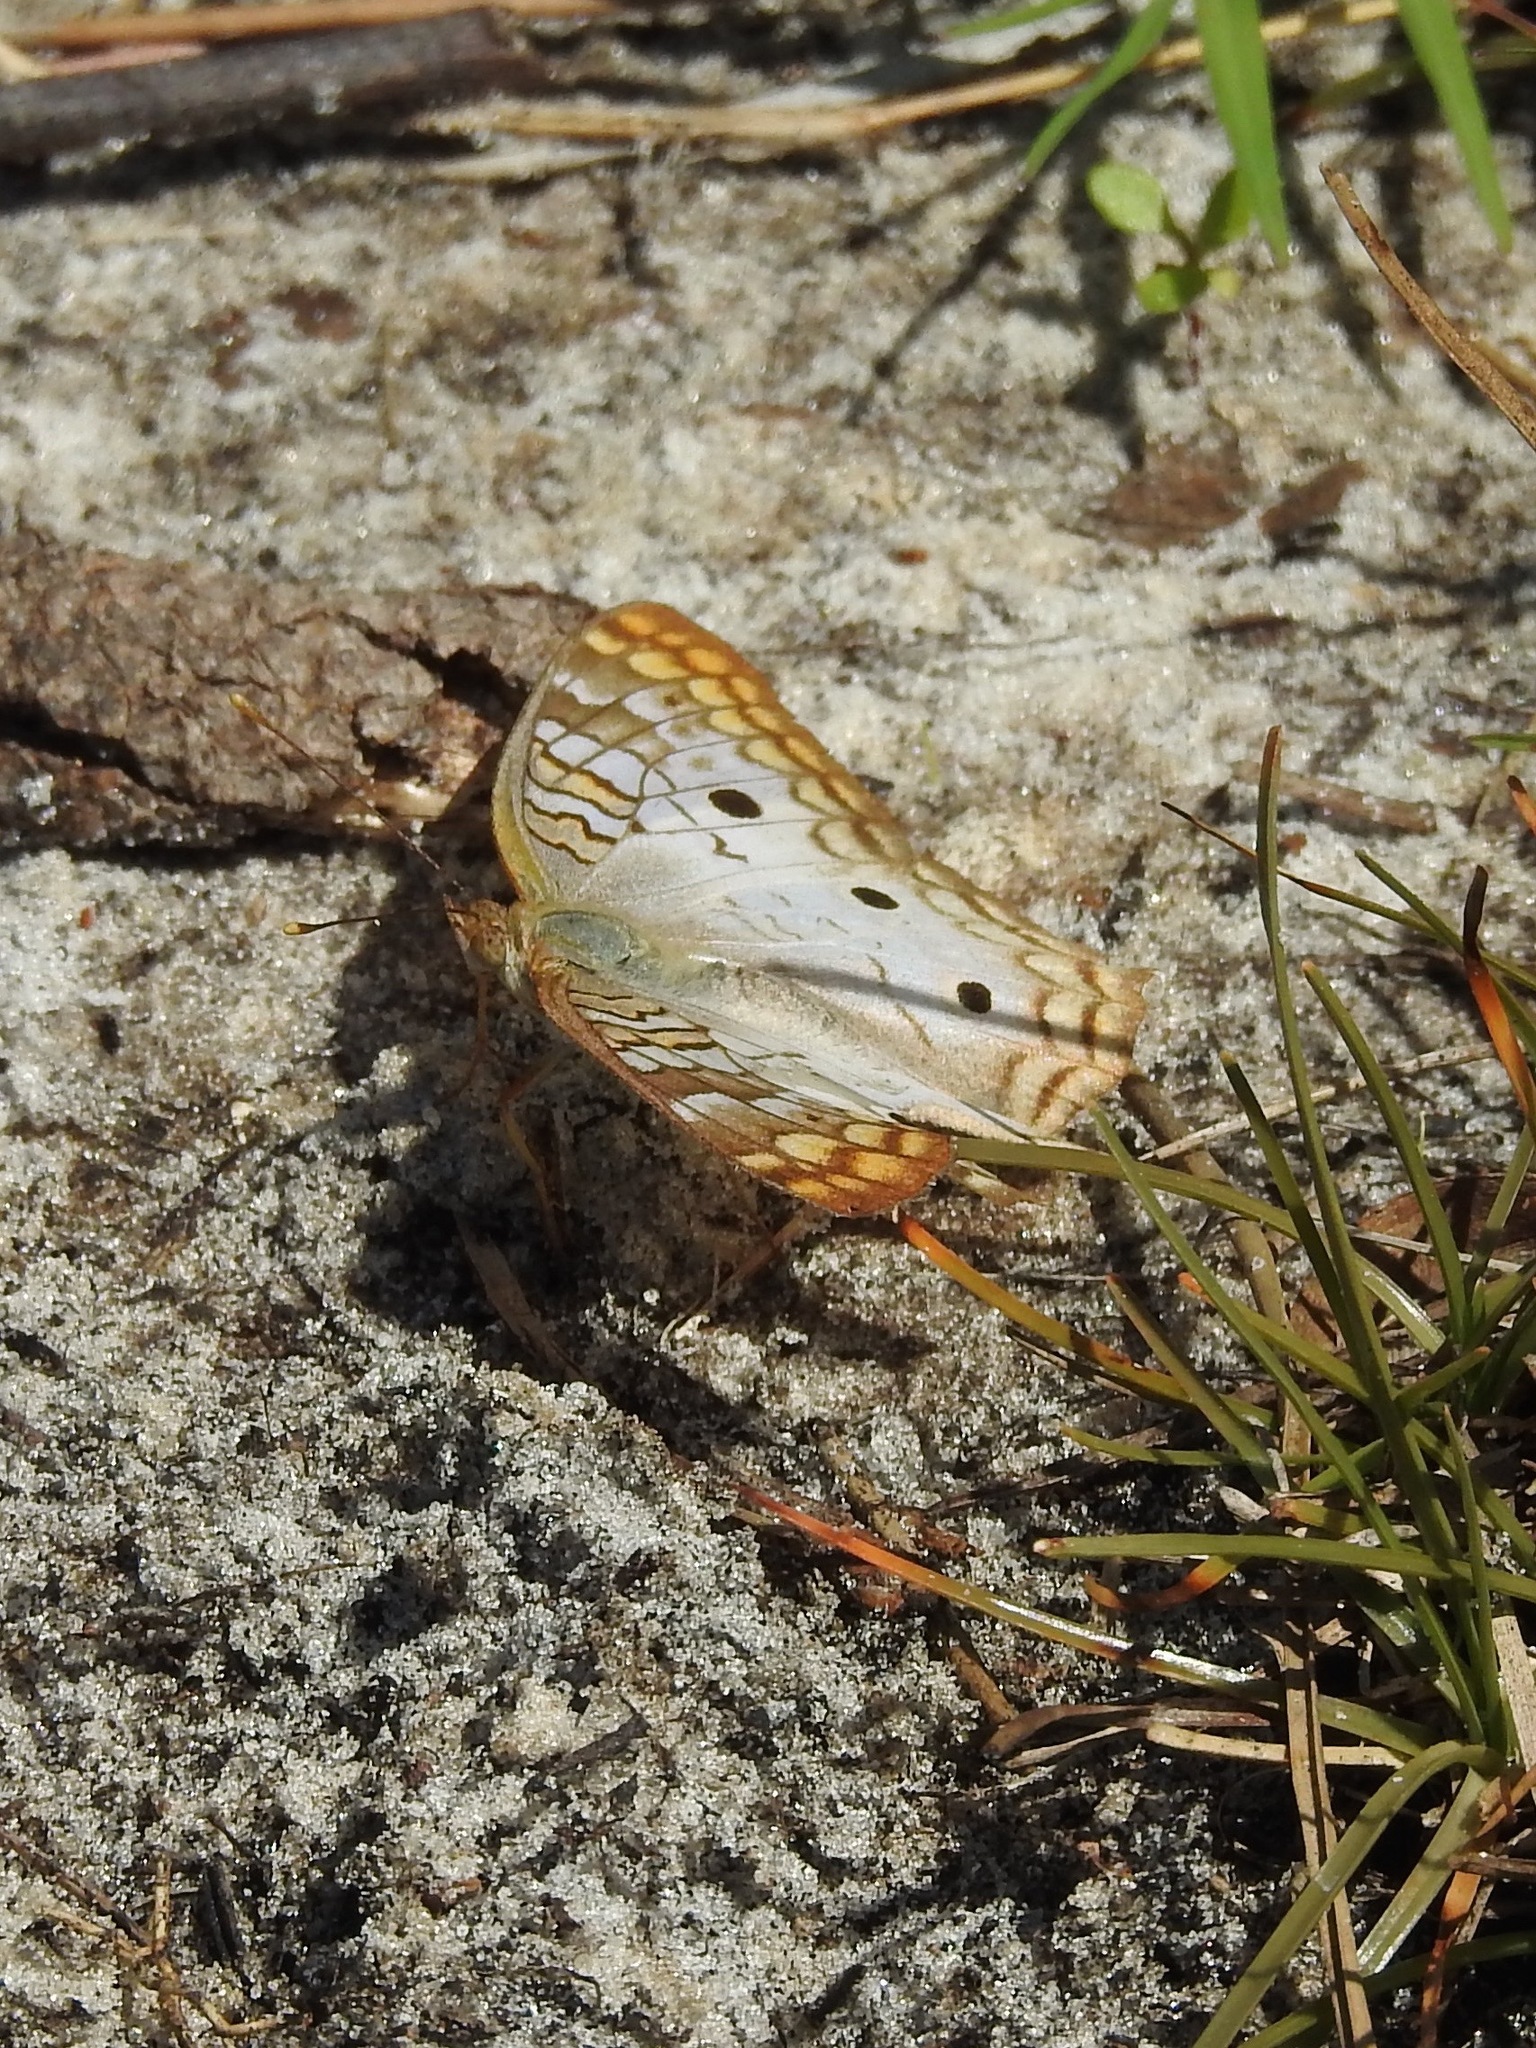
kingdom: Animalia
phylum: Arthropoda
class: Insecta
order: Lepidoptera
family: Nymphalidae
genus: Anartia
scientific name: Anartia jatrophae
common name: White peacock
